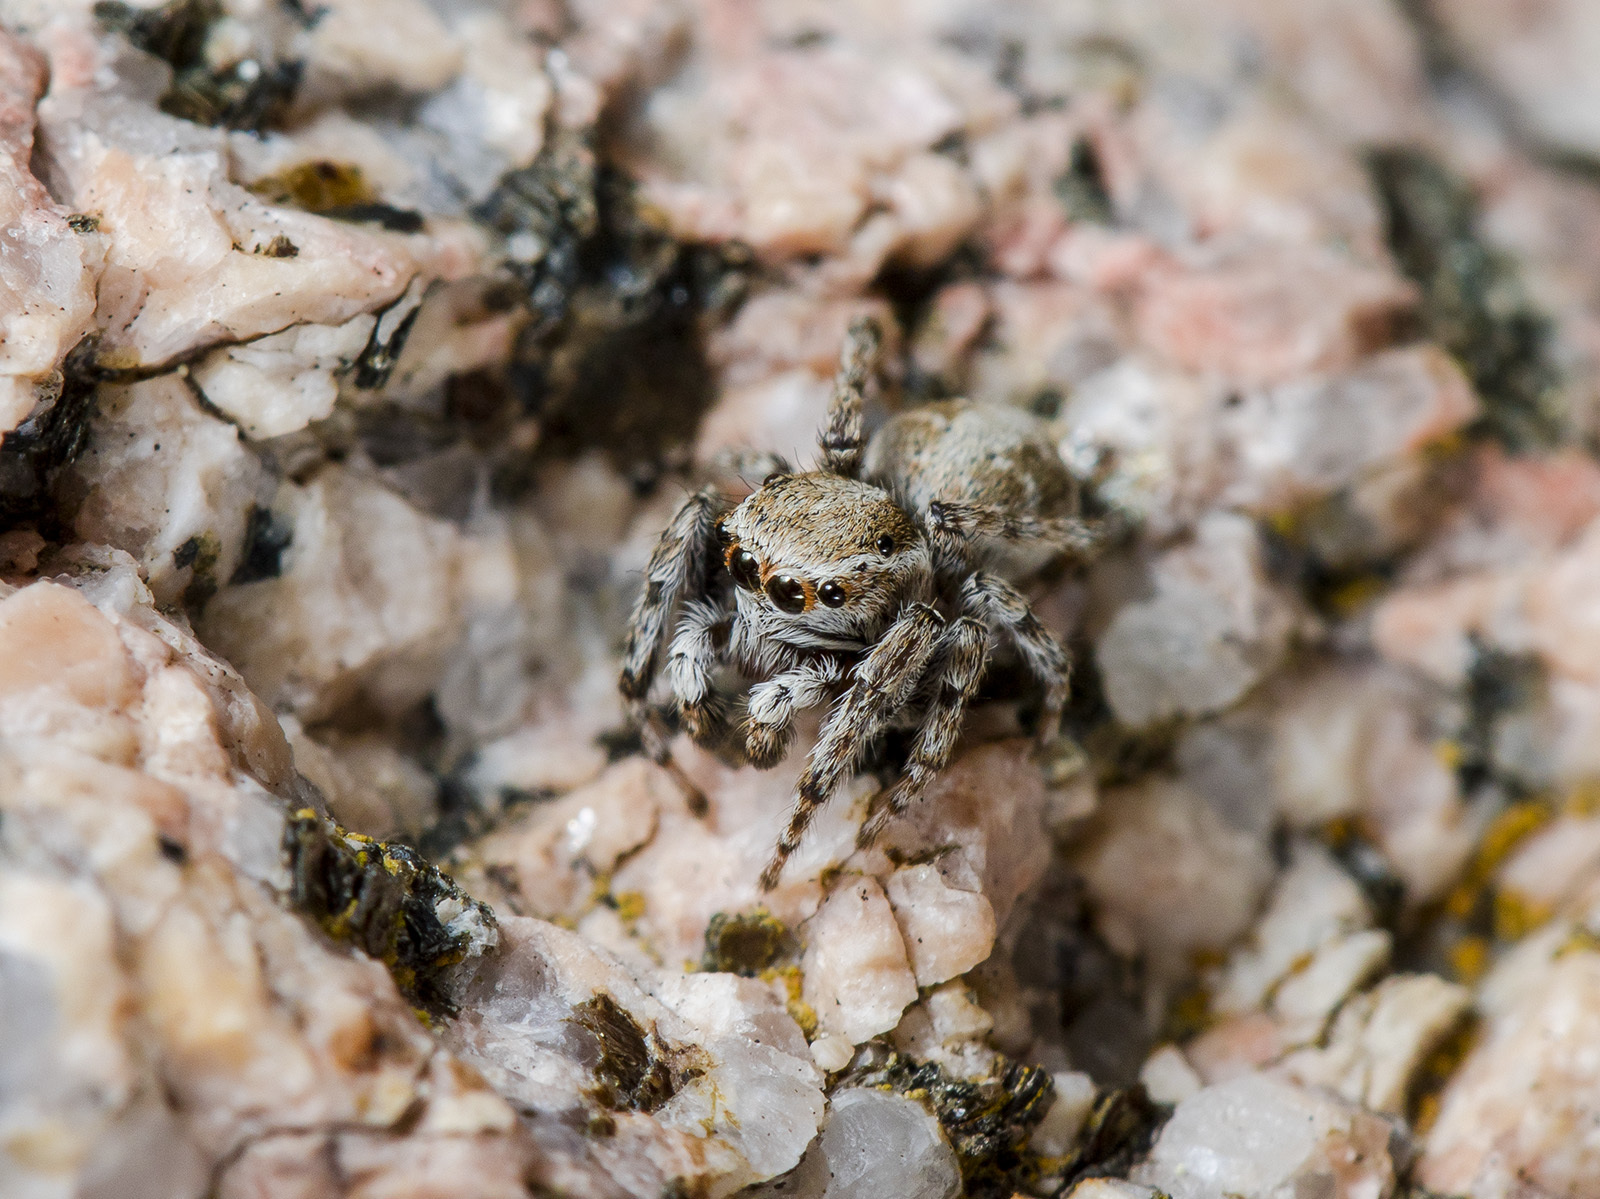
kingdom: Animalia
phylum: Arthropoda
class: Arachnida
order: Araneae
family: Salticidae
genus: Attulus
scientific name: Attulus avocator
